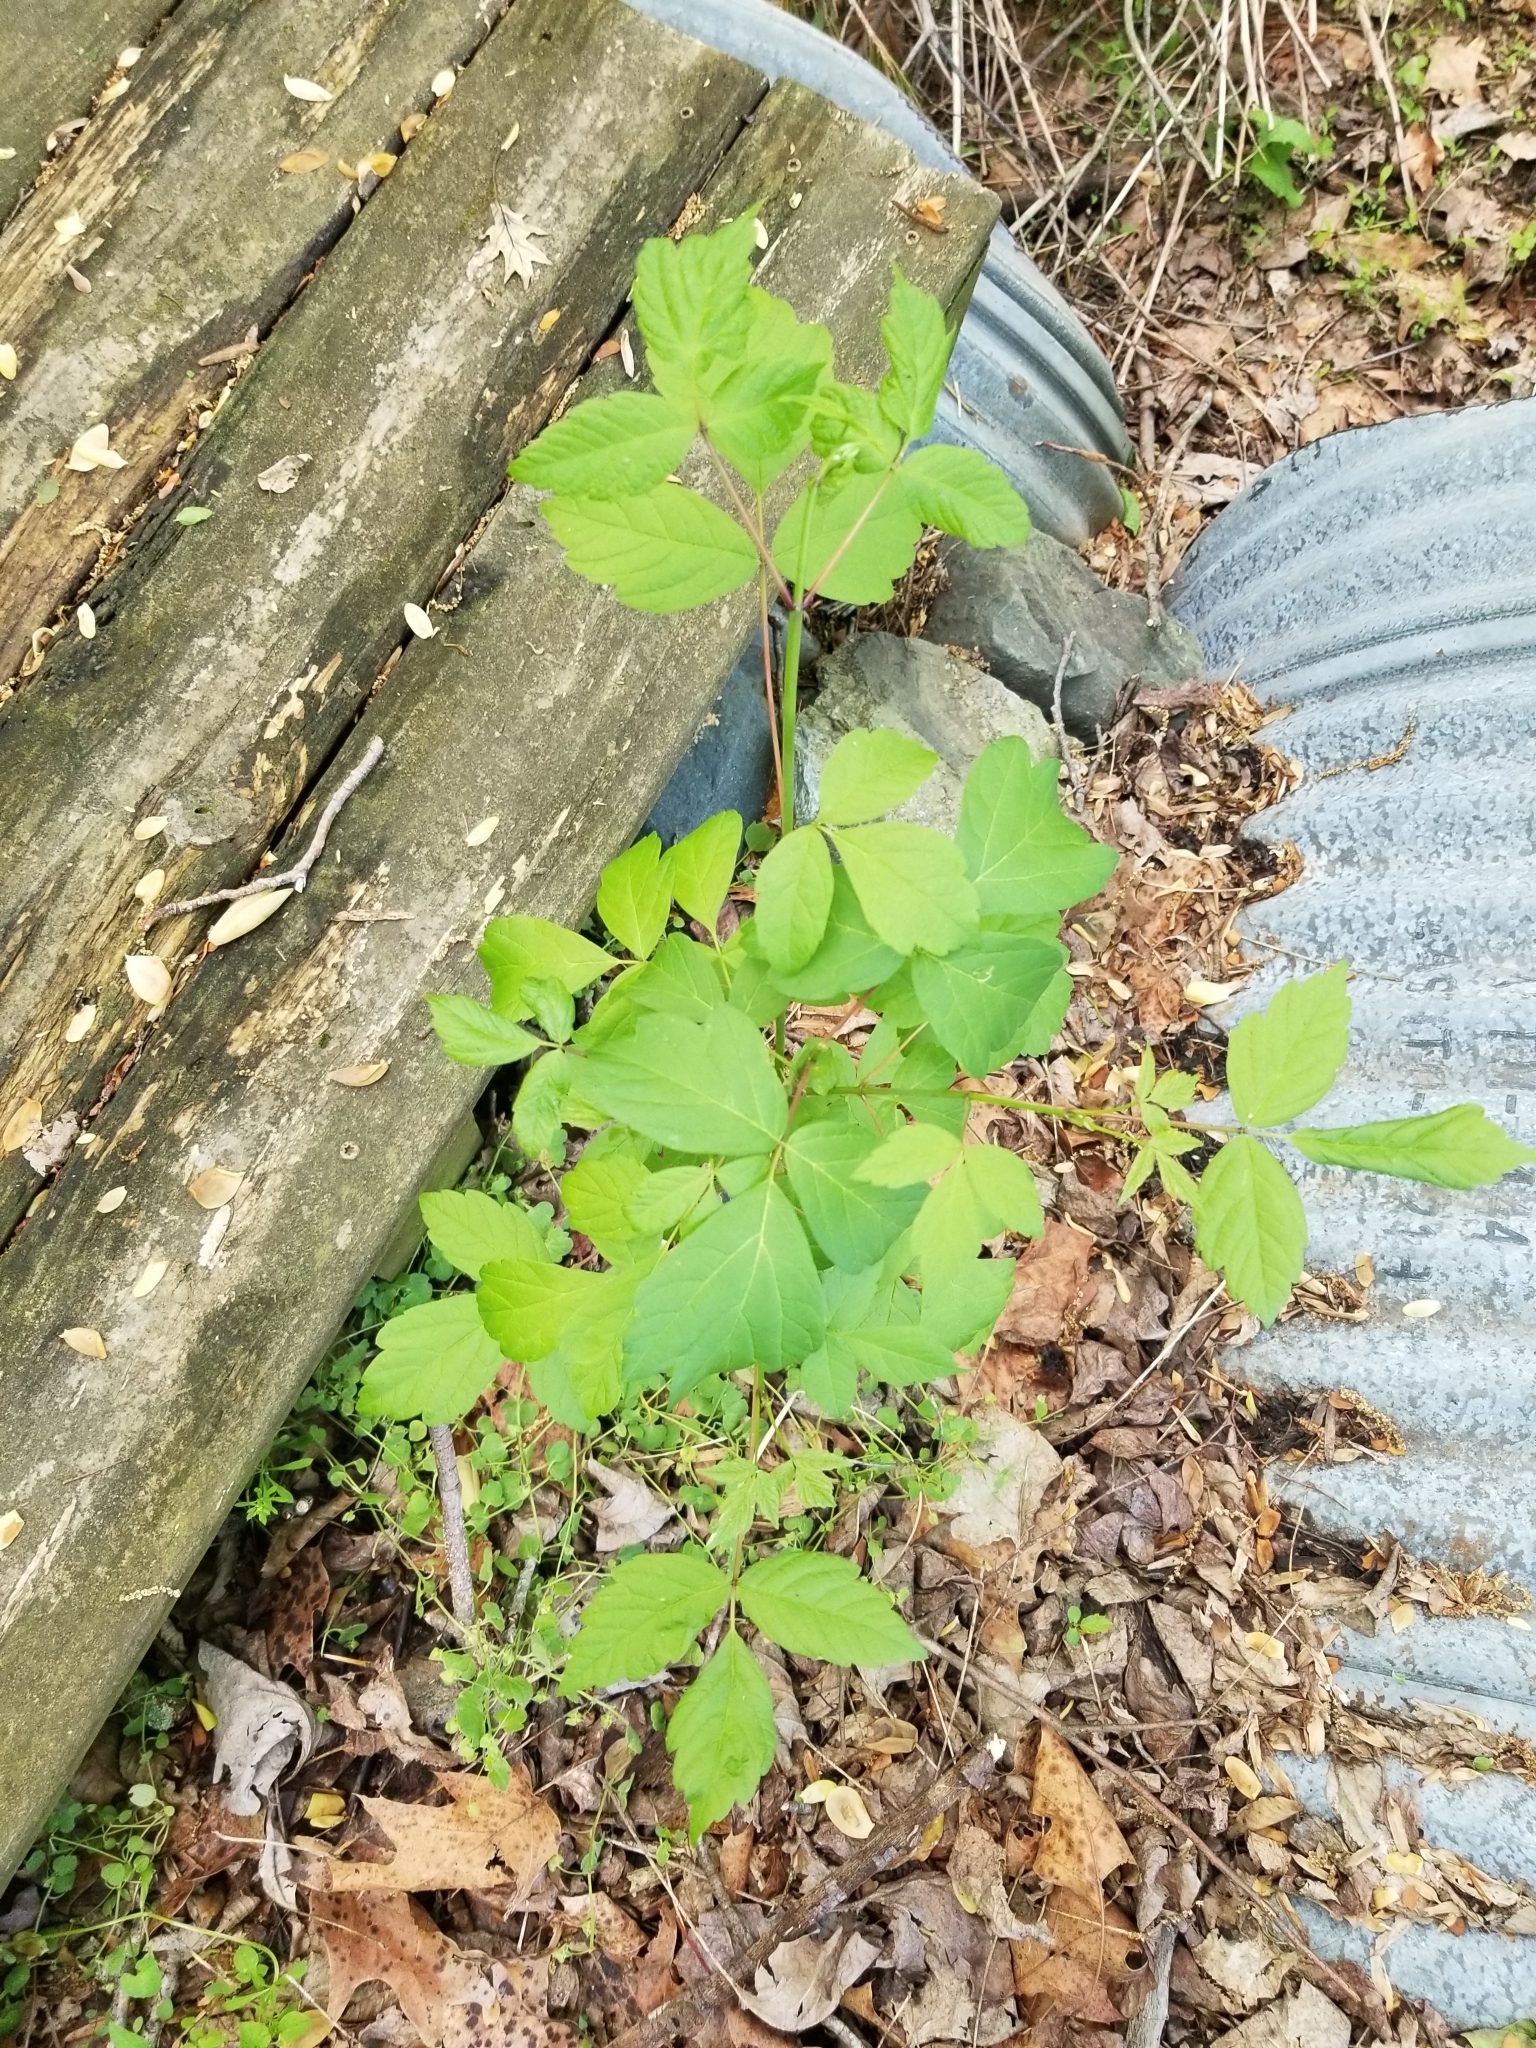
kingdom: Plantae
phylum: Tracheophyta
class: Magnoliopsida
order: Sapindales
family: Sapindaceae
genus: Acer
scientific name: Acer negundo
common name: Ashleaf maple
